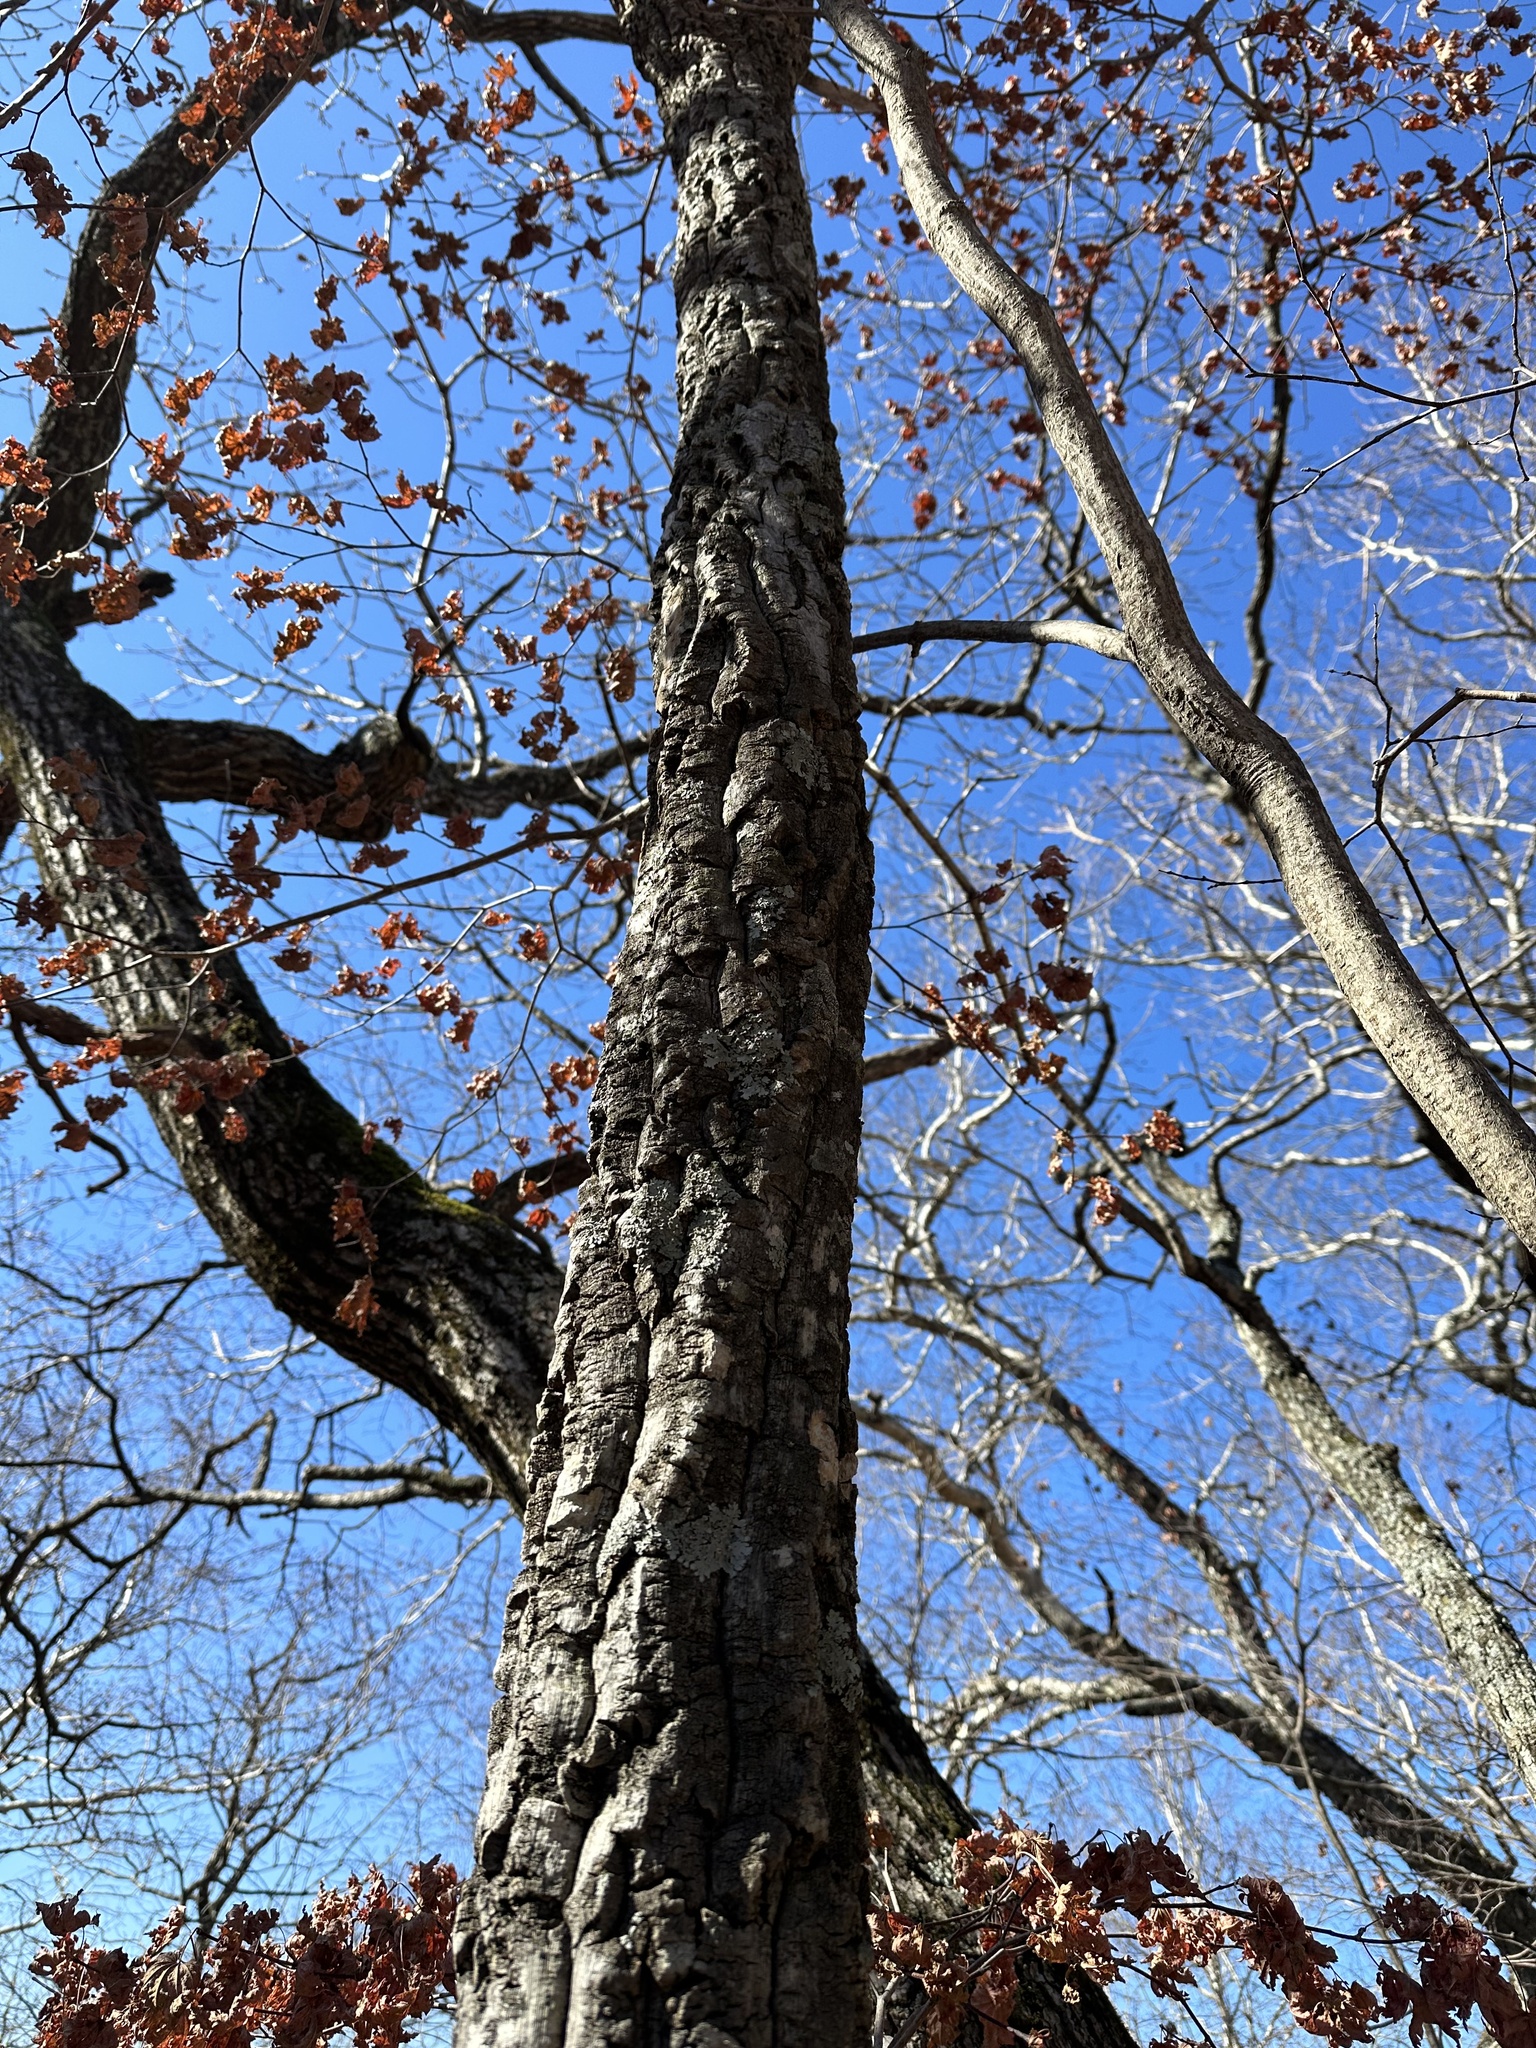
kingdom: Plantae
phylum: Tracheophyta
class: Magnoliopsida
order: Sapindales
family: Rutaceae
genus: Phellodendron
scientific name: Phellodendron amurense
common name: Amur corktree
